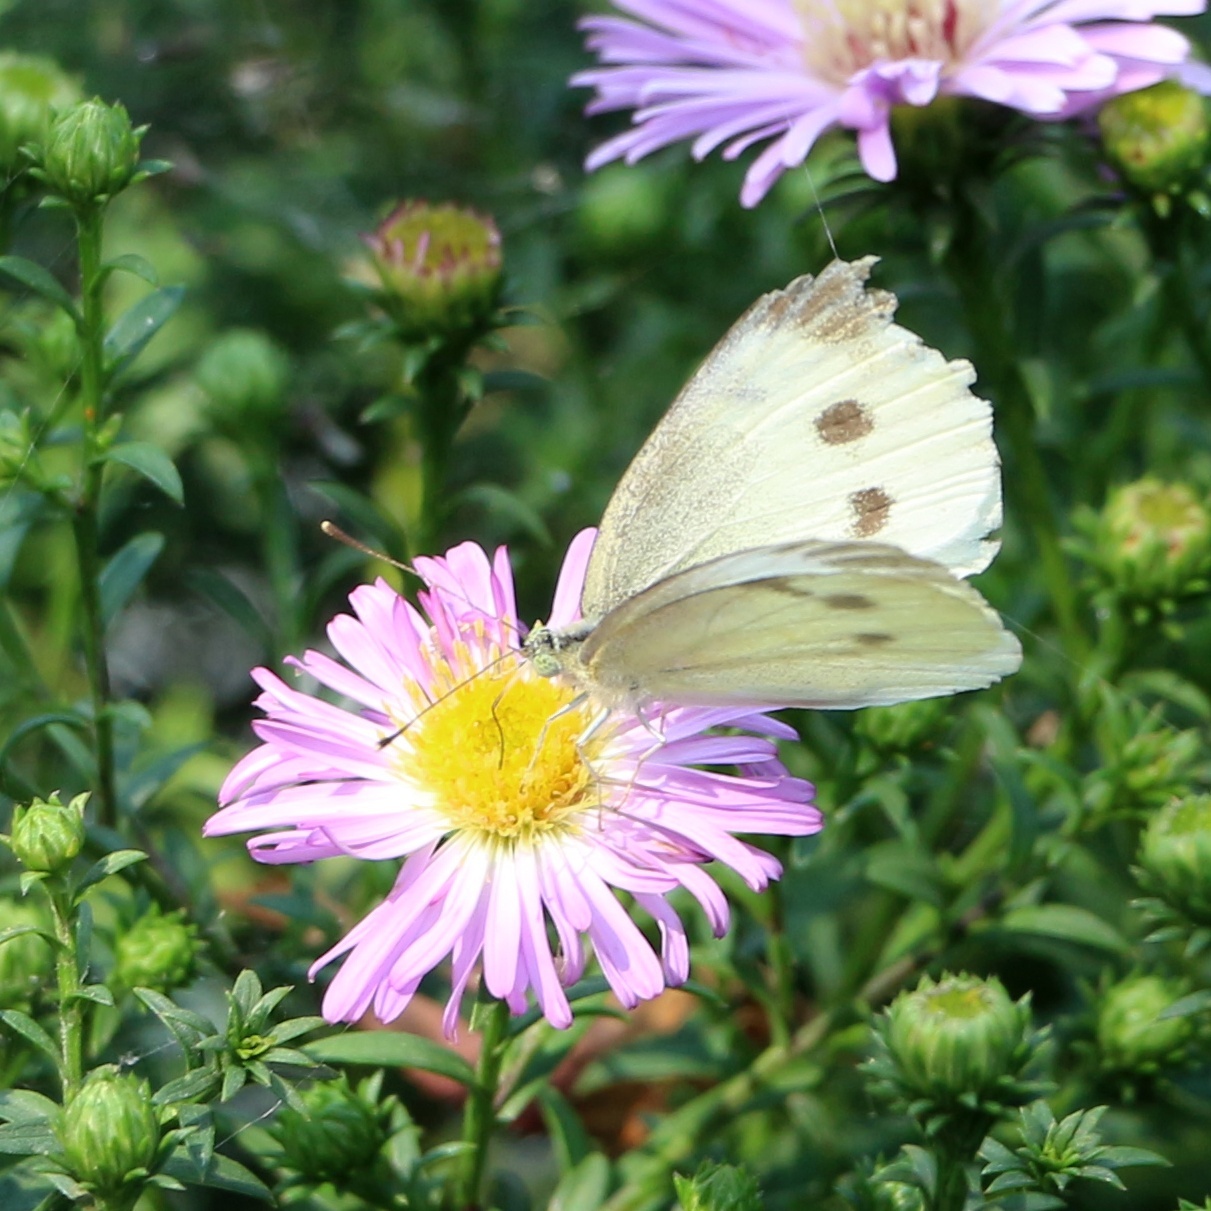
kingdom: Animalia
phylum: Arthropoda
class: Insecta
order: Lepidoptera
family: Pieridae
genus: Pieris
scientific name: Pieris rapae
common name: Small white
